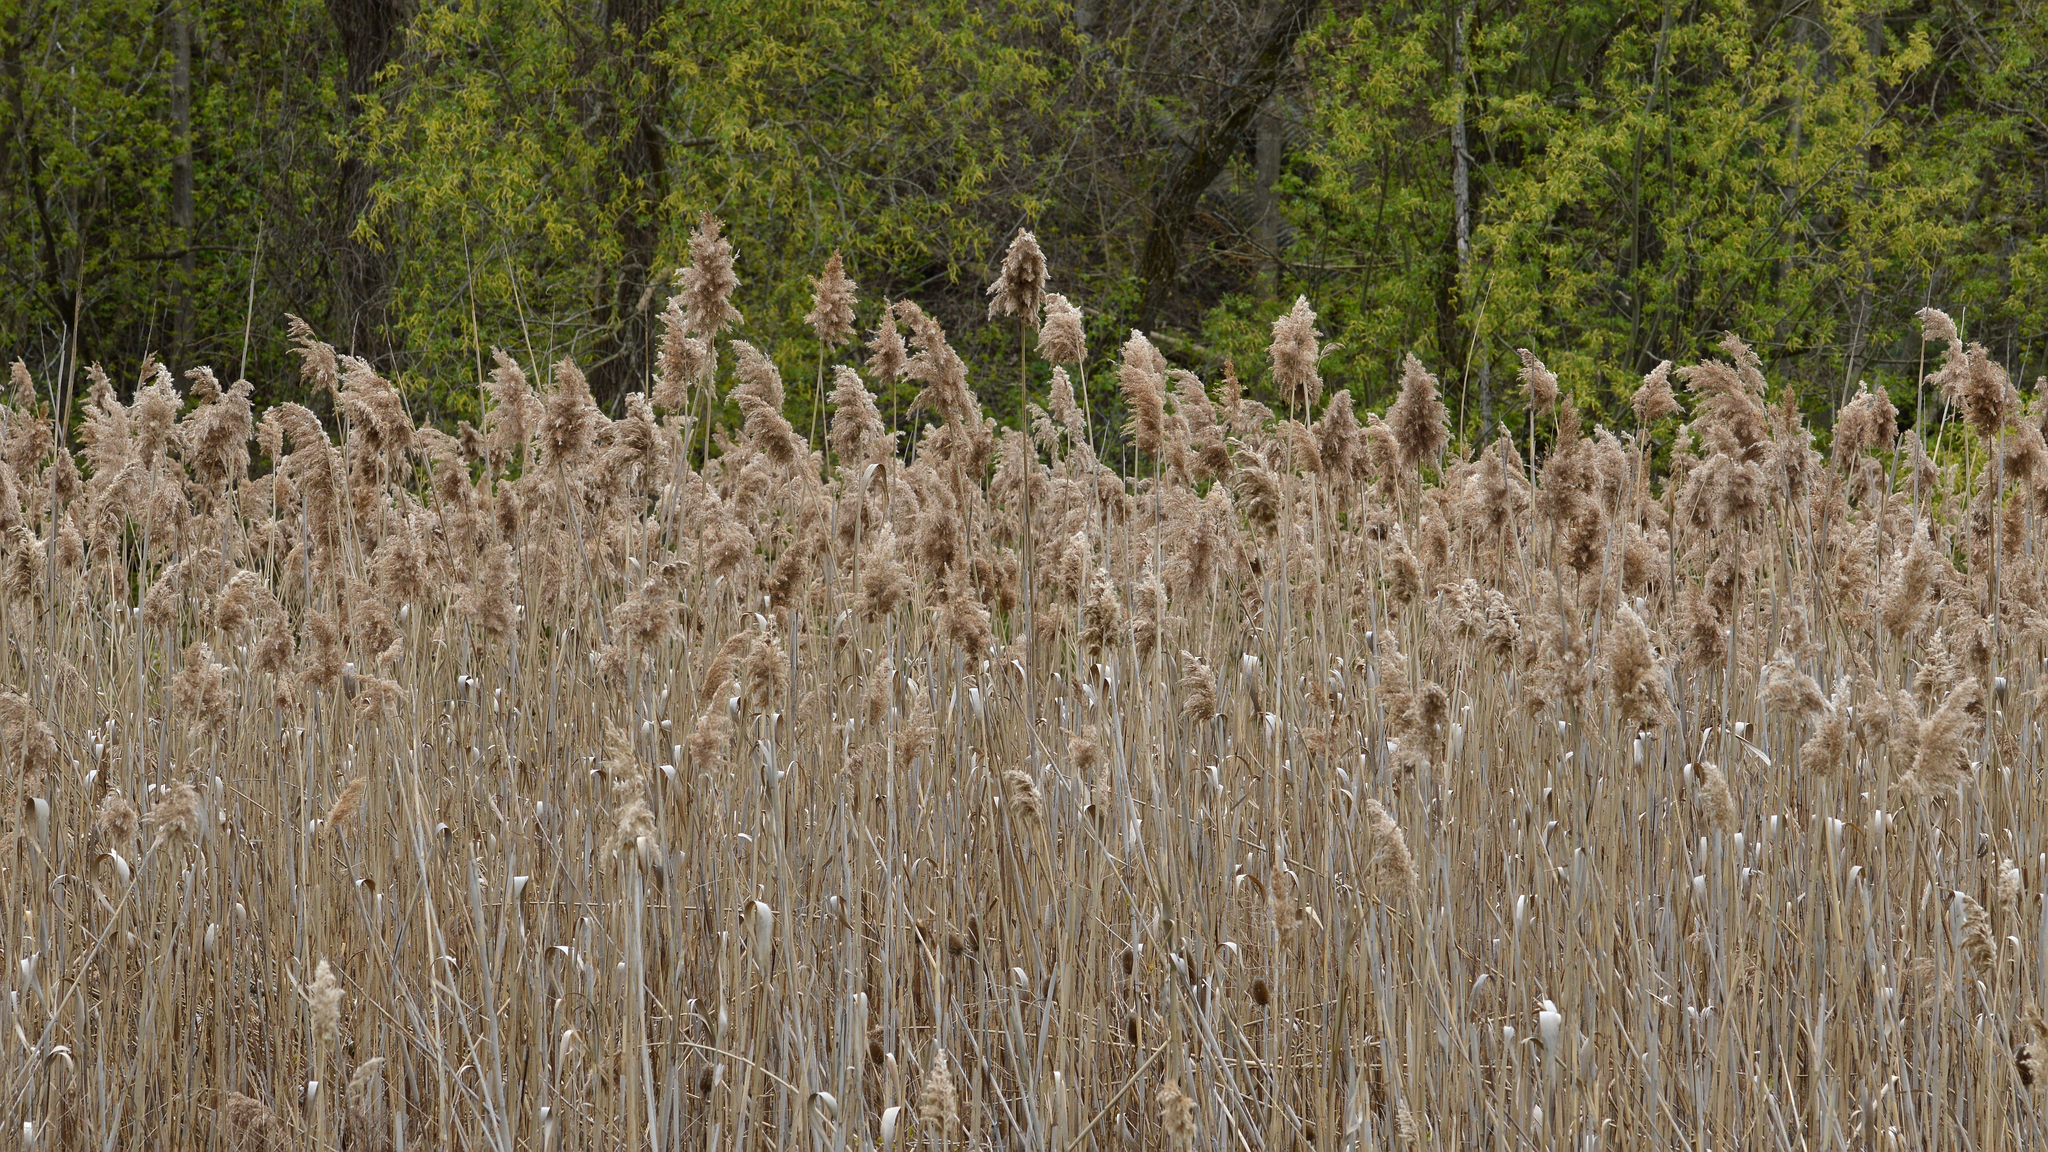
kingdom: Plantae
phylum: Tracheophyta
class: Liliopsida
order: Poales
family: Poaceae
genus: Phragmites
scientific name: Phragmites australis
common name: Common reed
